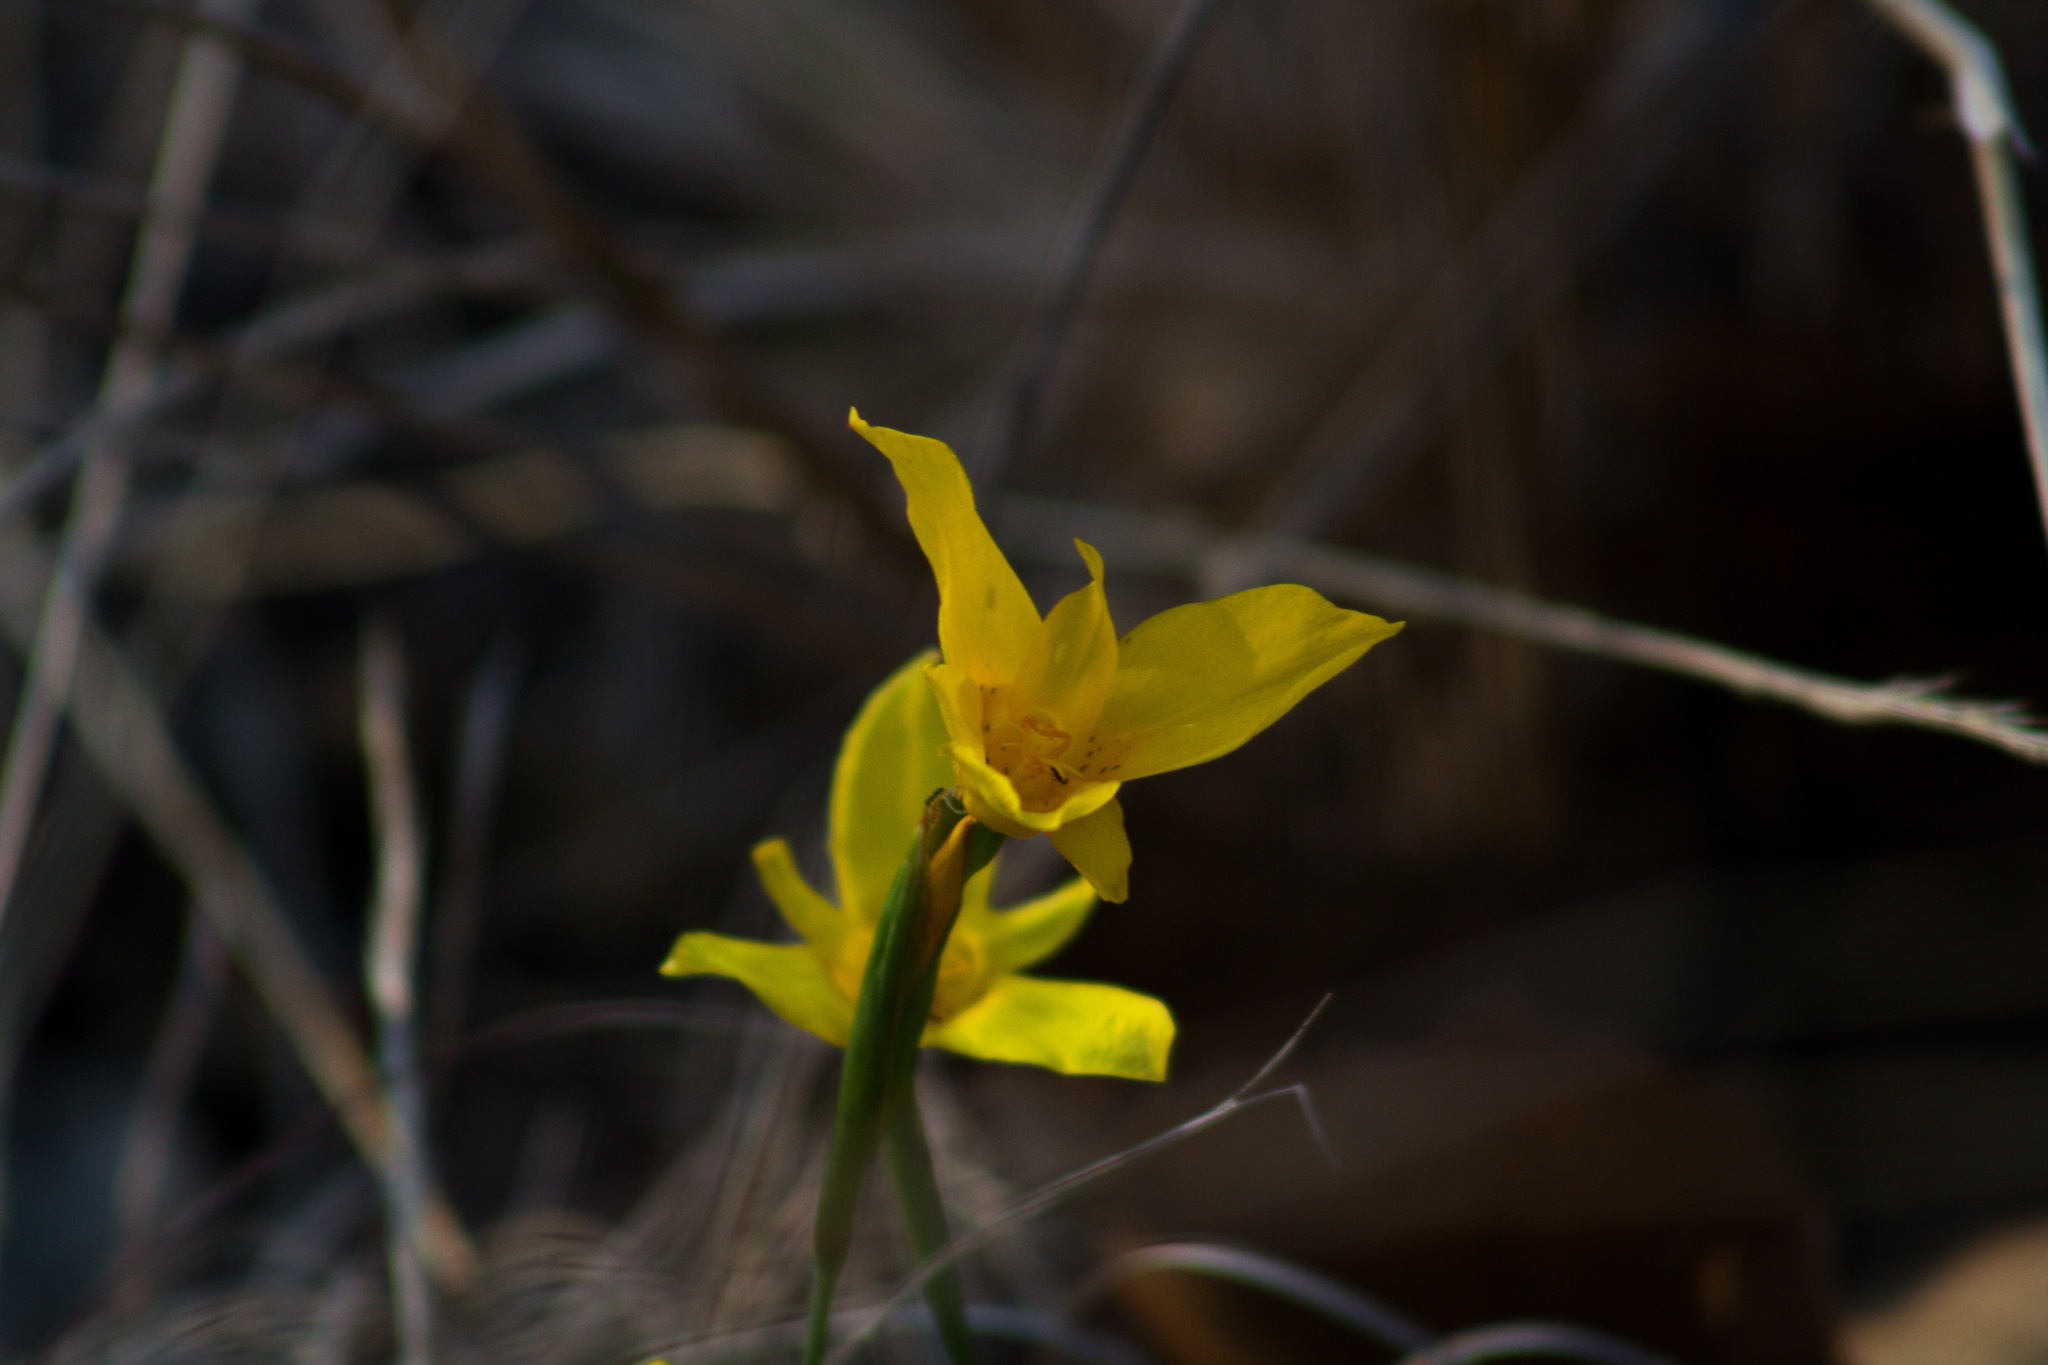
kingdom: Plantae
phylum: Tracheophyta
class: Liliopsida
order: Asparagales
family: Iridaceae
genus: Tigridia
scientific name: Tigridia dugesii
